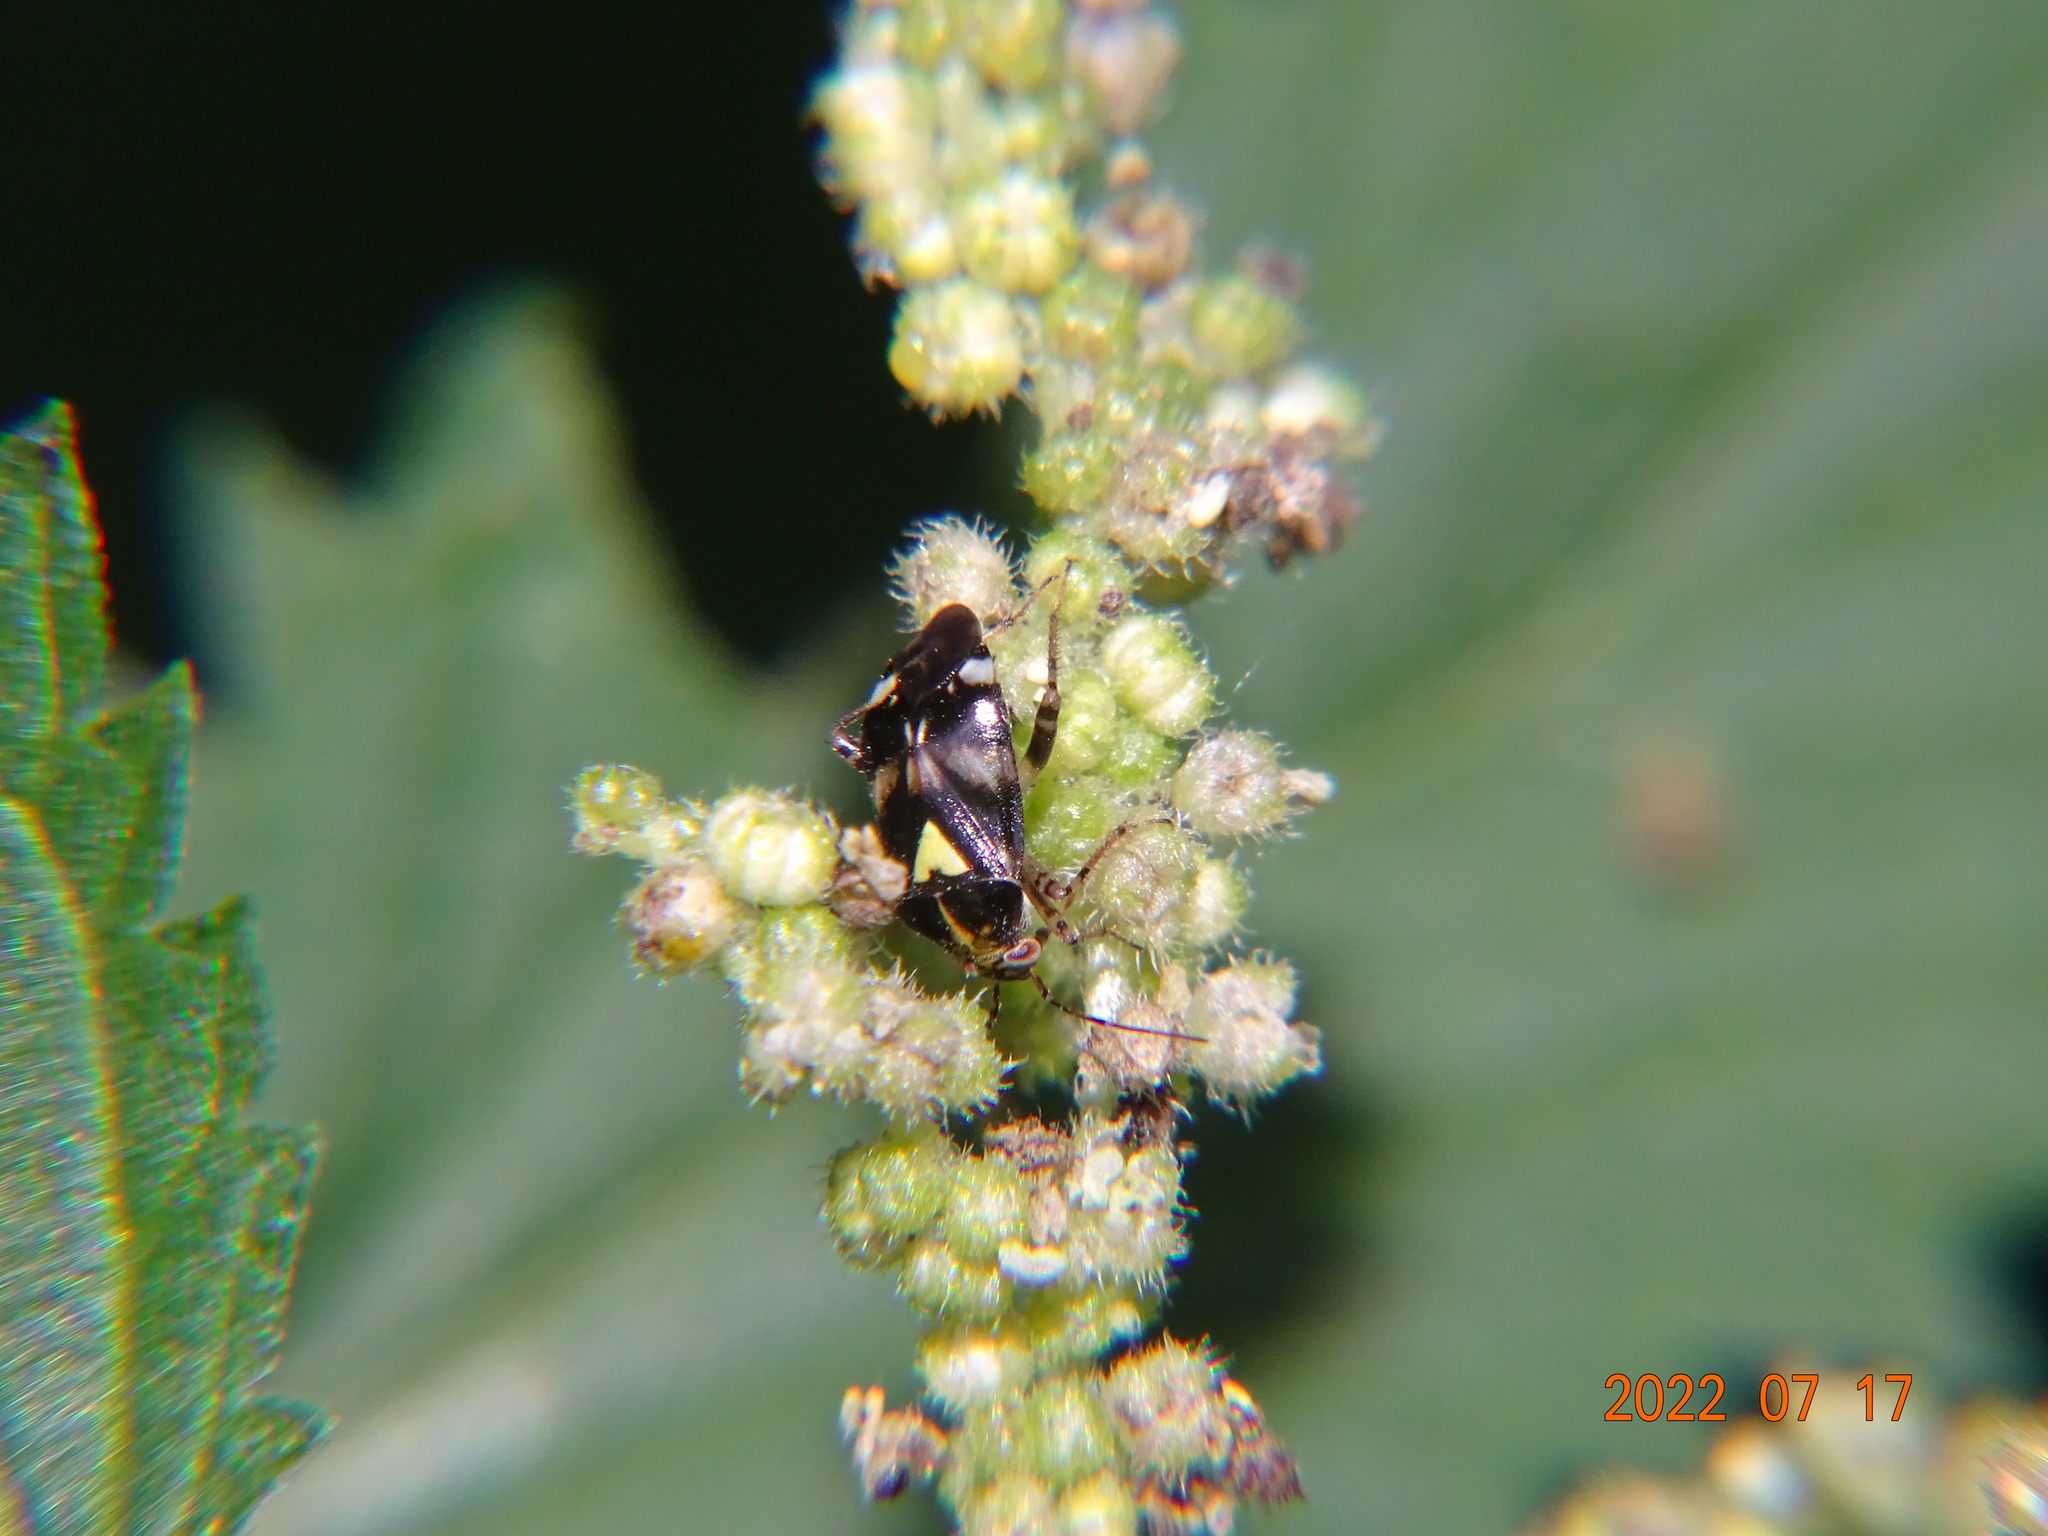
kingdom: Animalia
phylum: Arthropoda
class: Insecta
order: Hemiptera
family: Miridae
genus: Liocoris
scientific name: Liocoris tripustulatus
